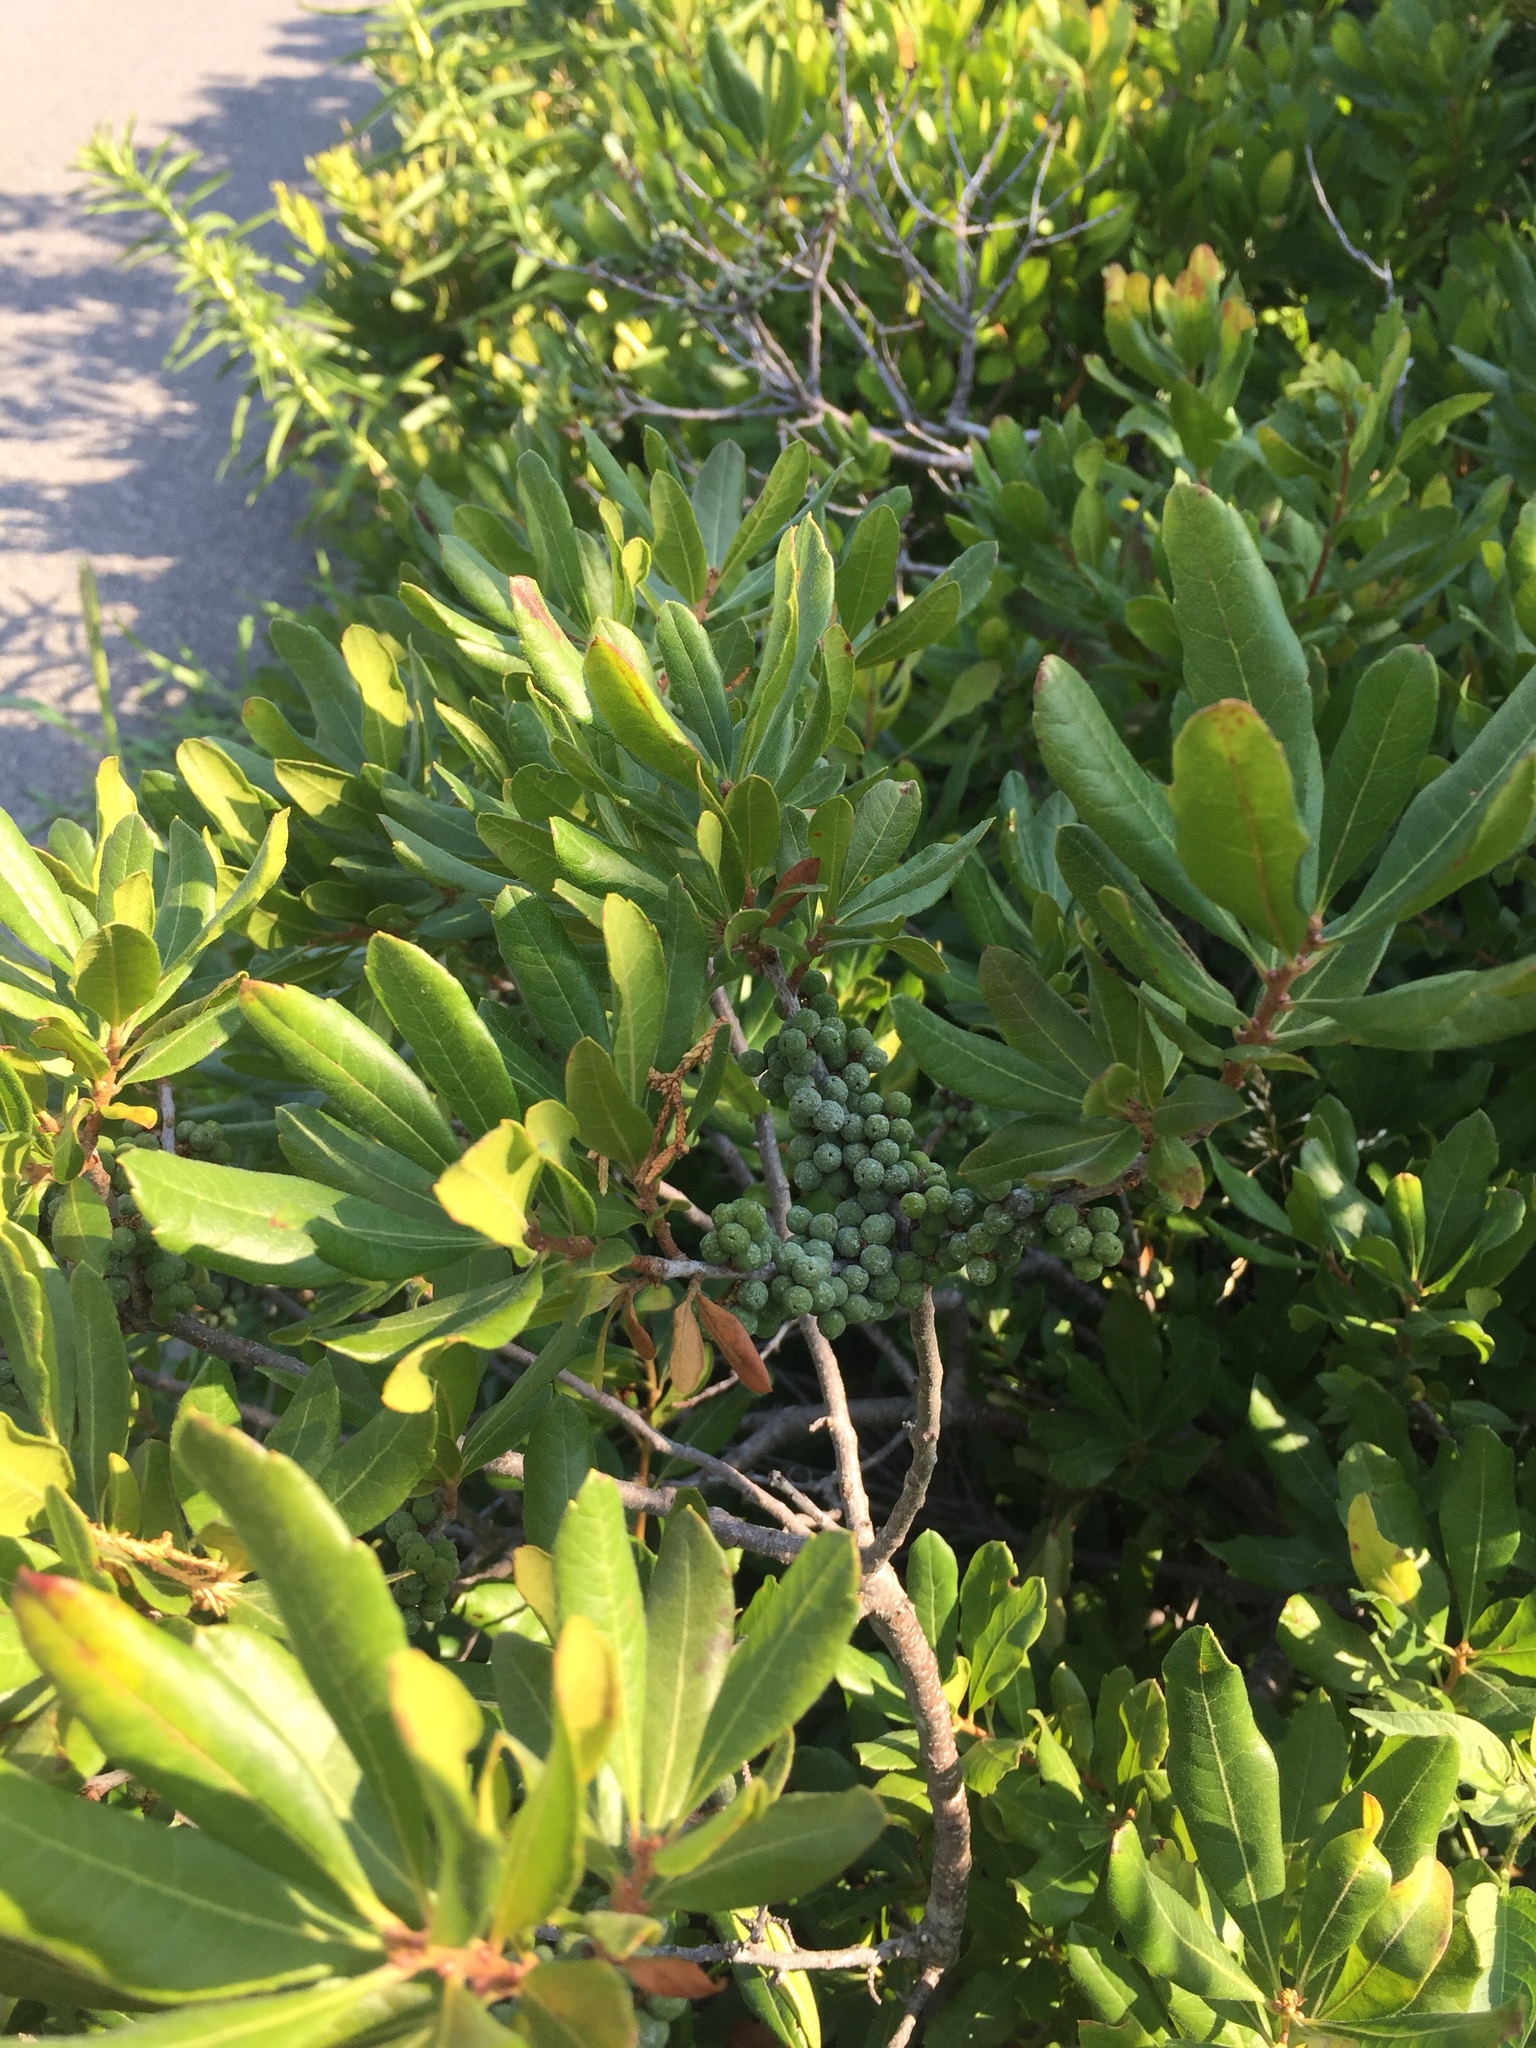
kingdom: Plantae
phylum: Tracheophyta
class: Magnoliopsida
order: Fagales
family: Myricaceae
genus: Morella
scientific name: Morella pensylvanica
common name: Northern bayberry
